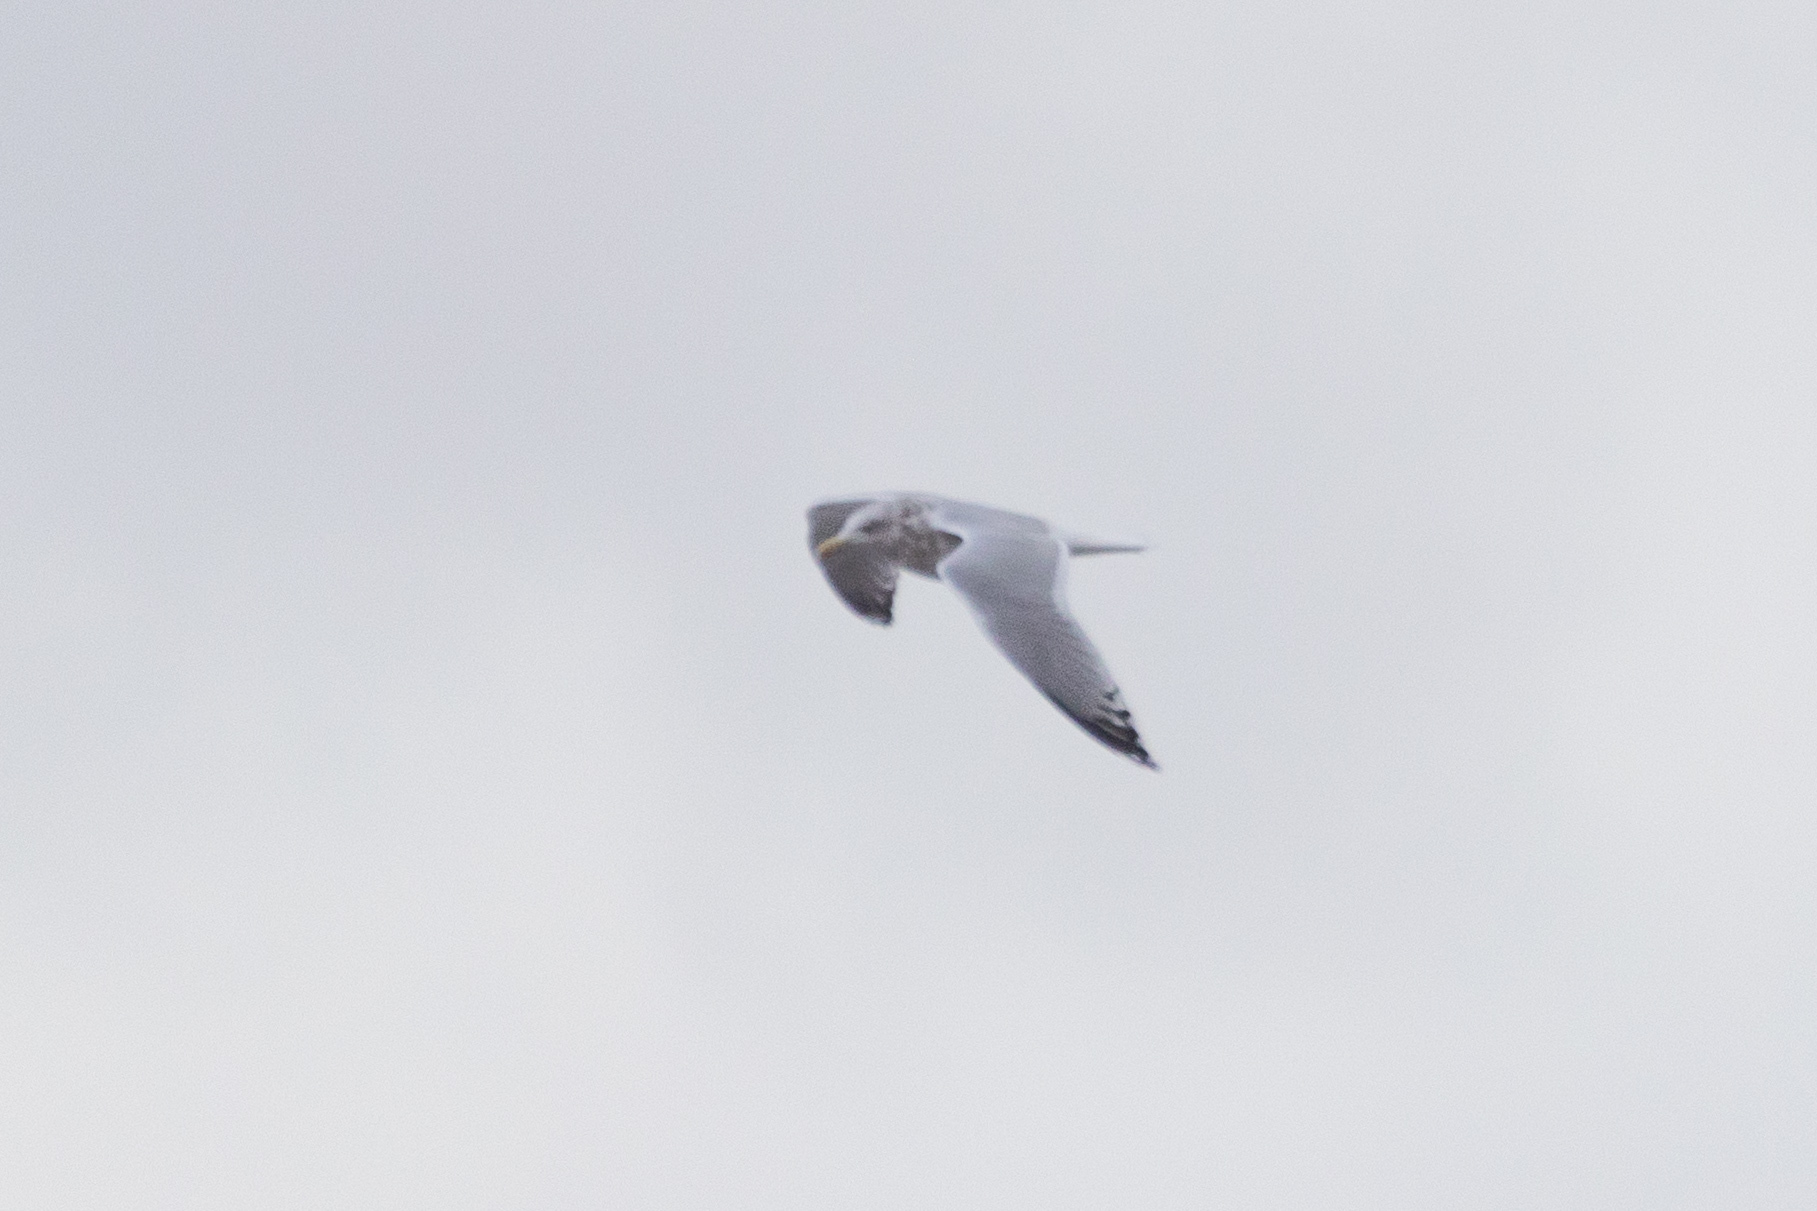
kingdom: Animalia
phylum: Chordata
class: Aves
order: Charadriiformes
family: Laridae
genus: Larus
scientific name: Larus argentatus
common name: Herring gull
